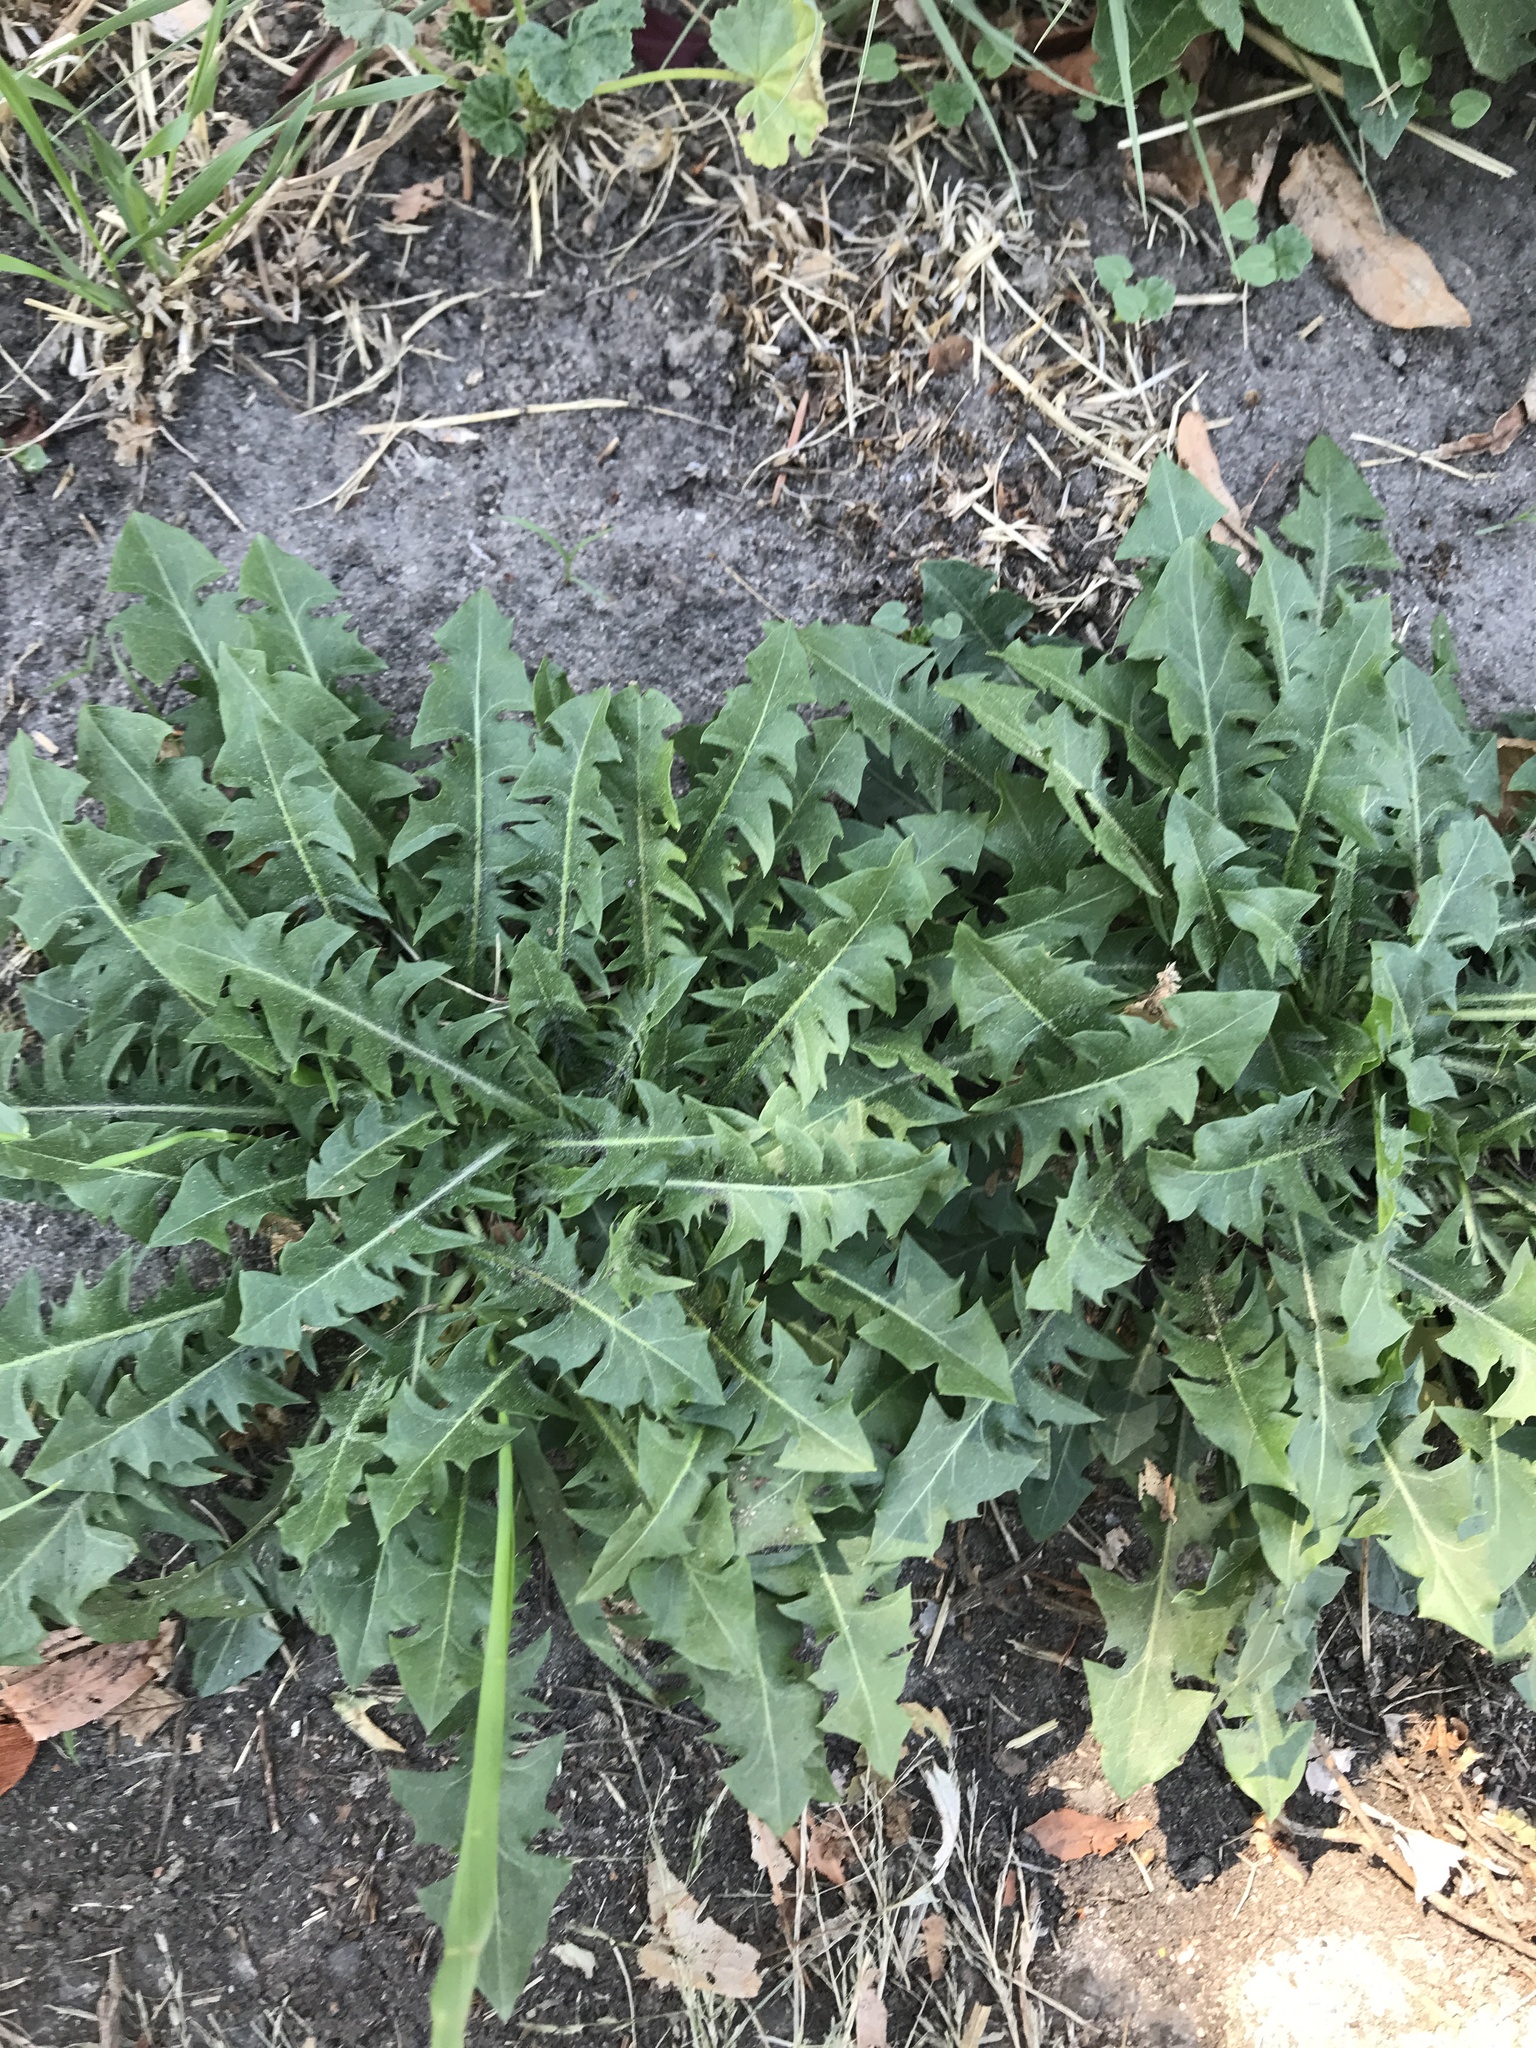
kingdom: Plantae
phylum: Tracheophyta
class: Magnoliopsida
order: Asterales
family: Asteraceae
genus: Taraxacum
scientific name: Taraxacum officinale
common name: Common dandelion
